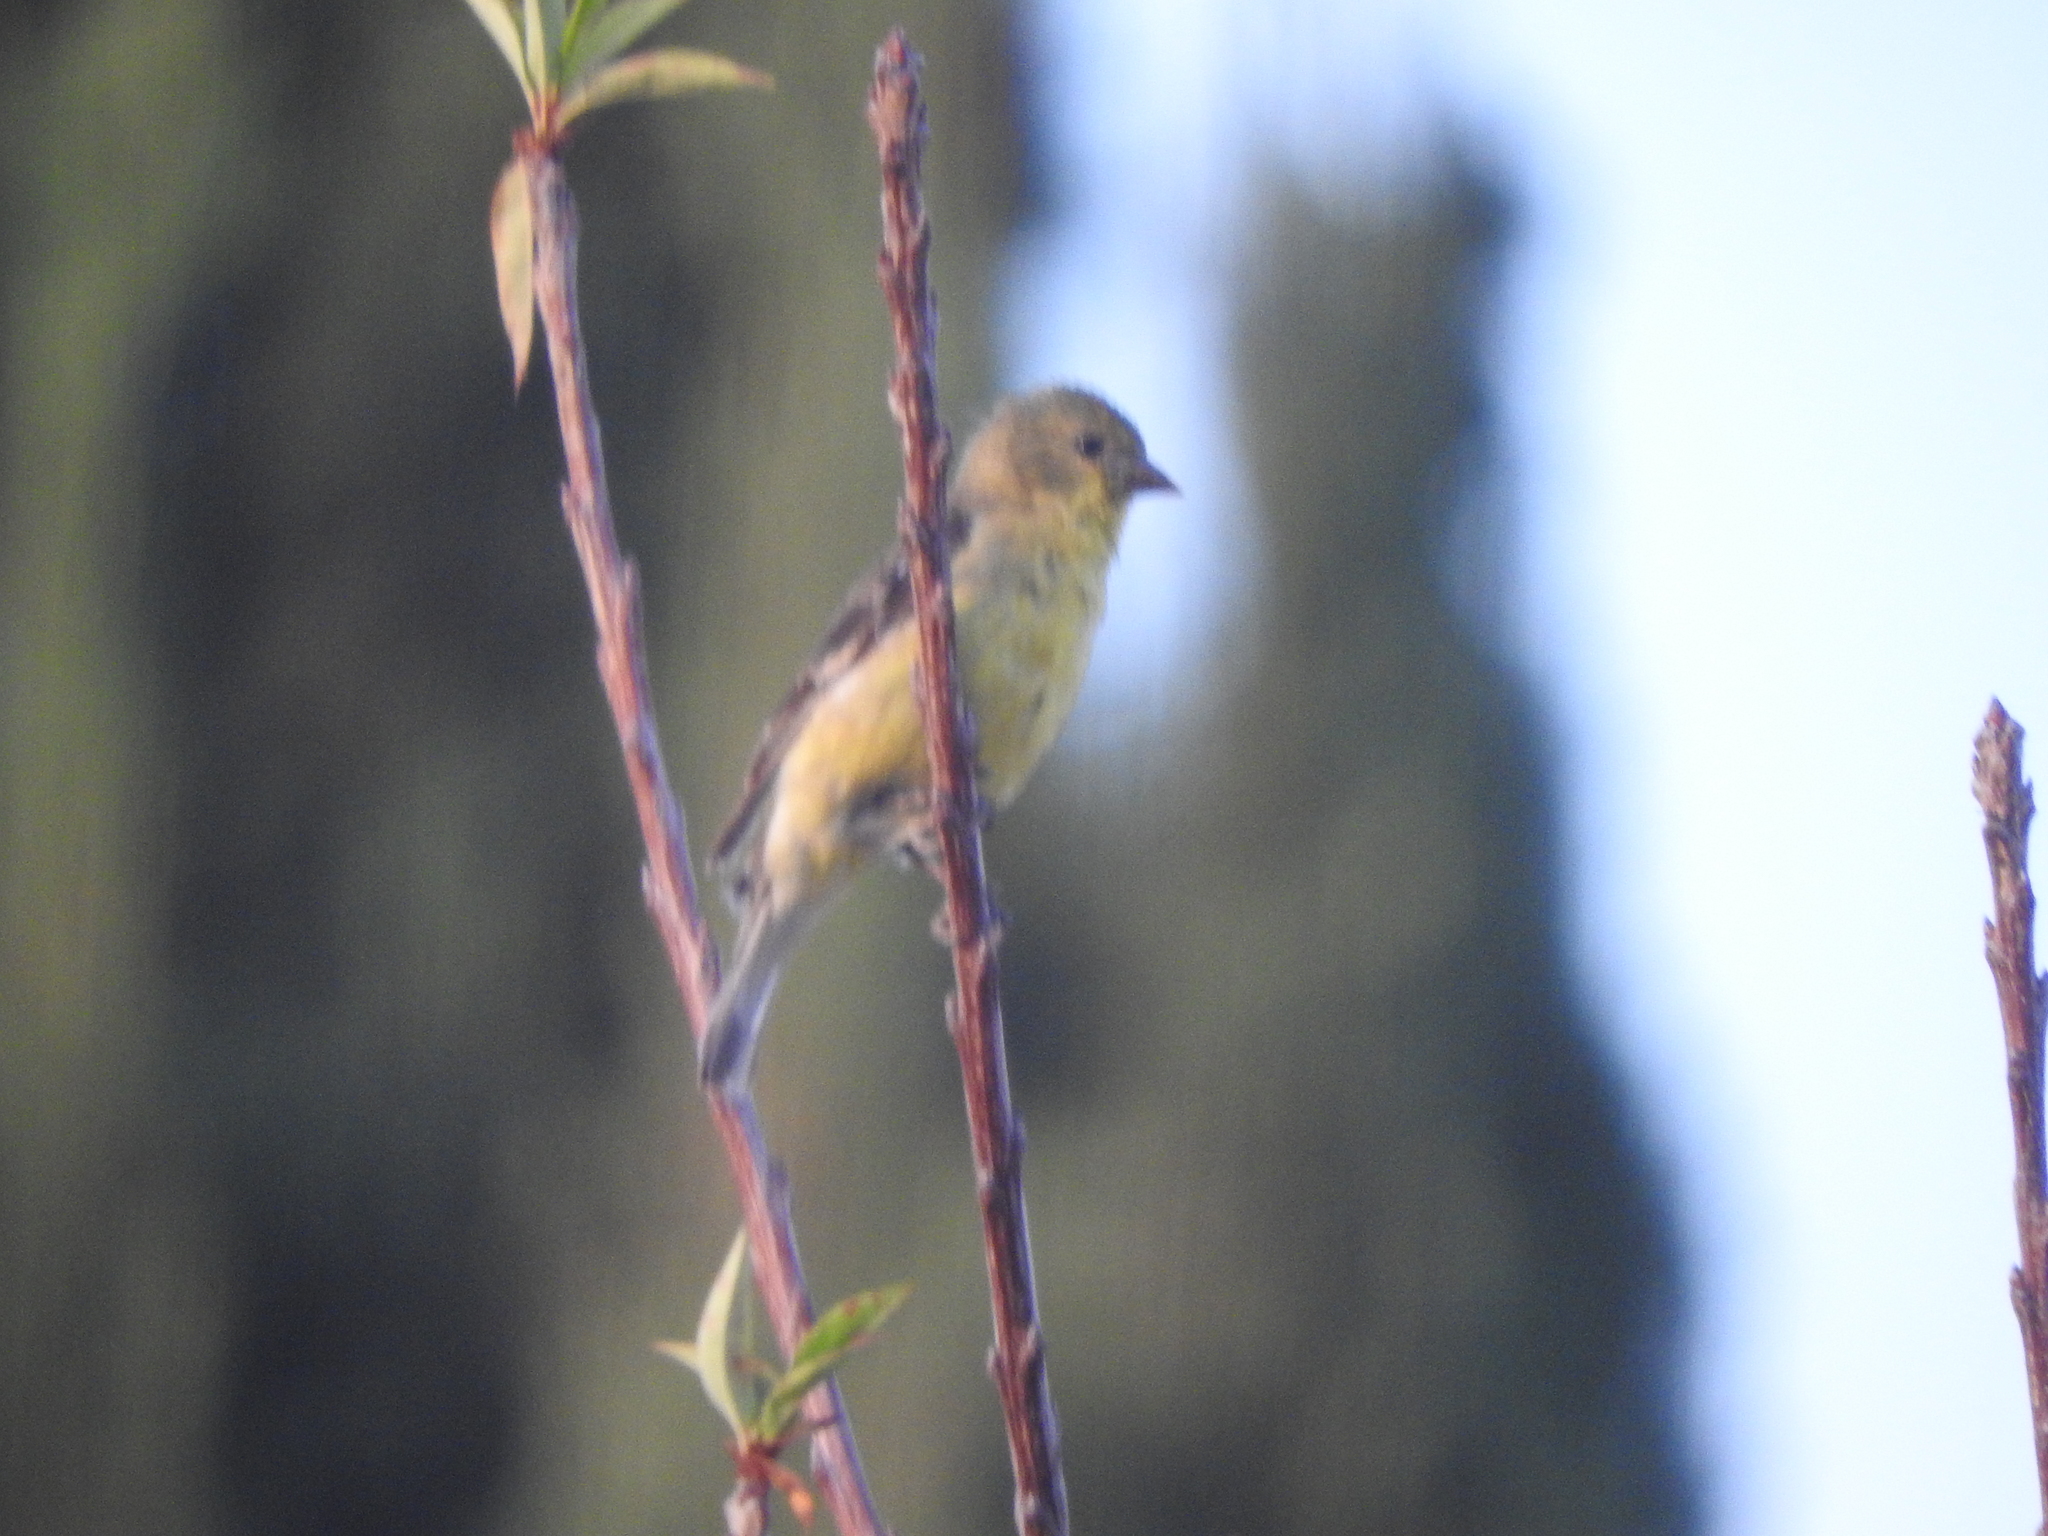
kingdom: Animalia
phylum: Chordata
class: Aves
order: Passeriformes
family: Fringillidae
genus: Spinus
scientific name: Spinus psaltria
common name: Lesser goldfinch
